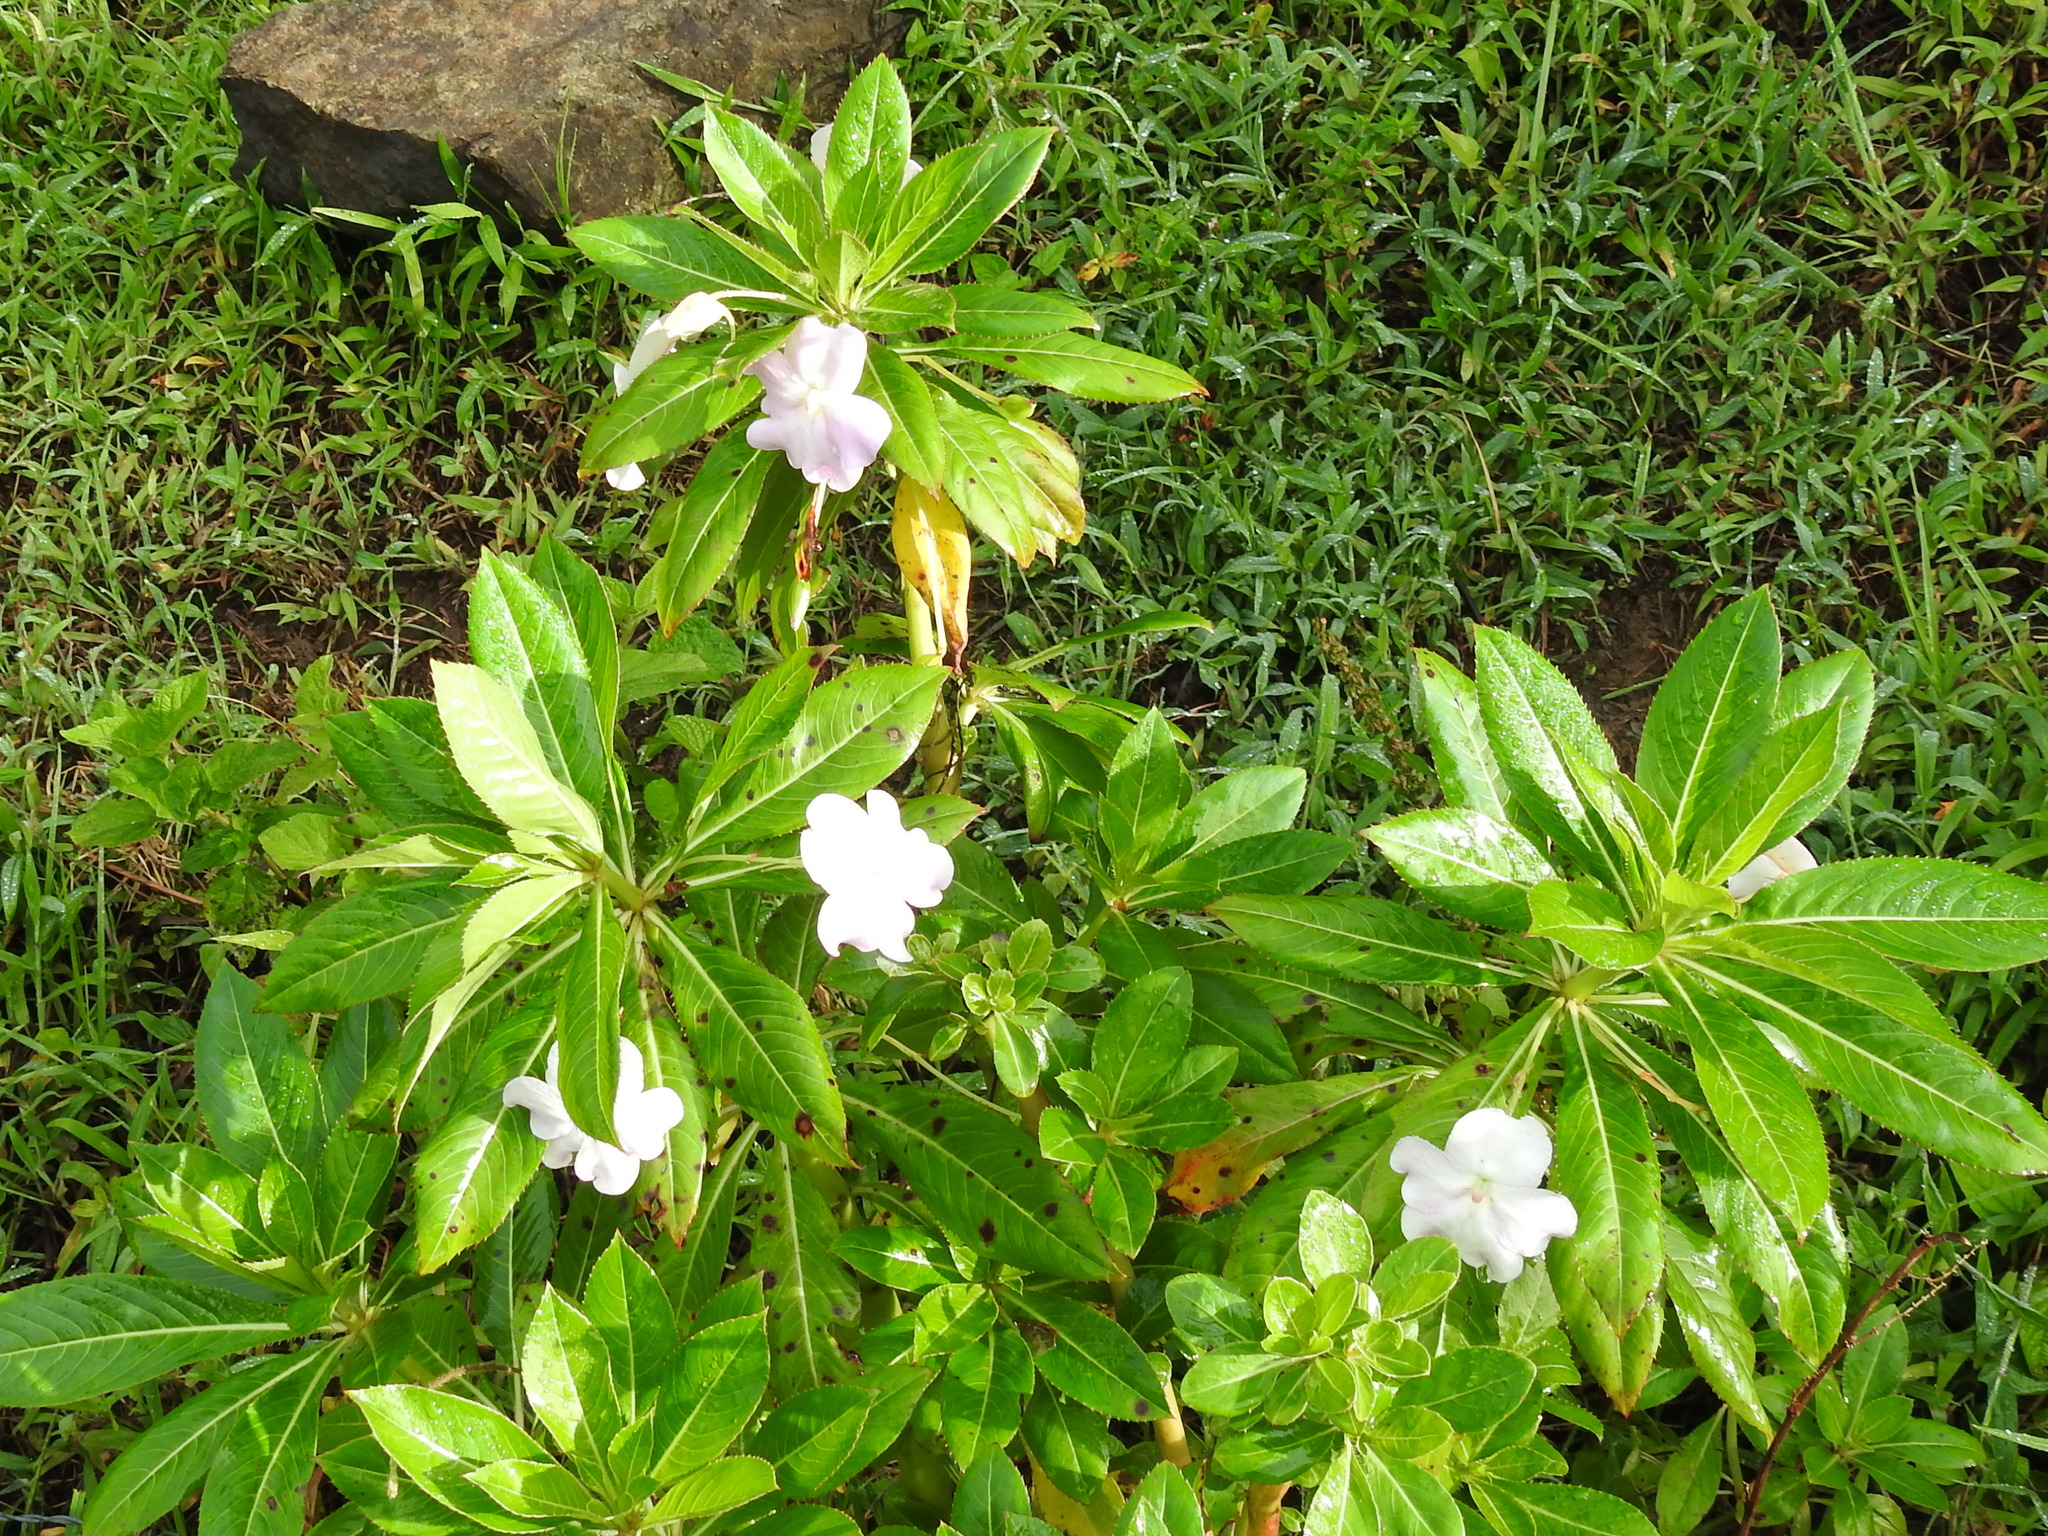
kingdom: Plantae
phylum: Tracheophyta
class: Magnoliopsida
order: Ericales
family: Balsaminaceae
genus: Impatiens
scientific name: Impatiens sodenii
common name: Oliver's touch-me-not
